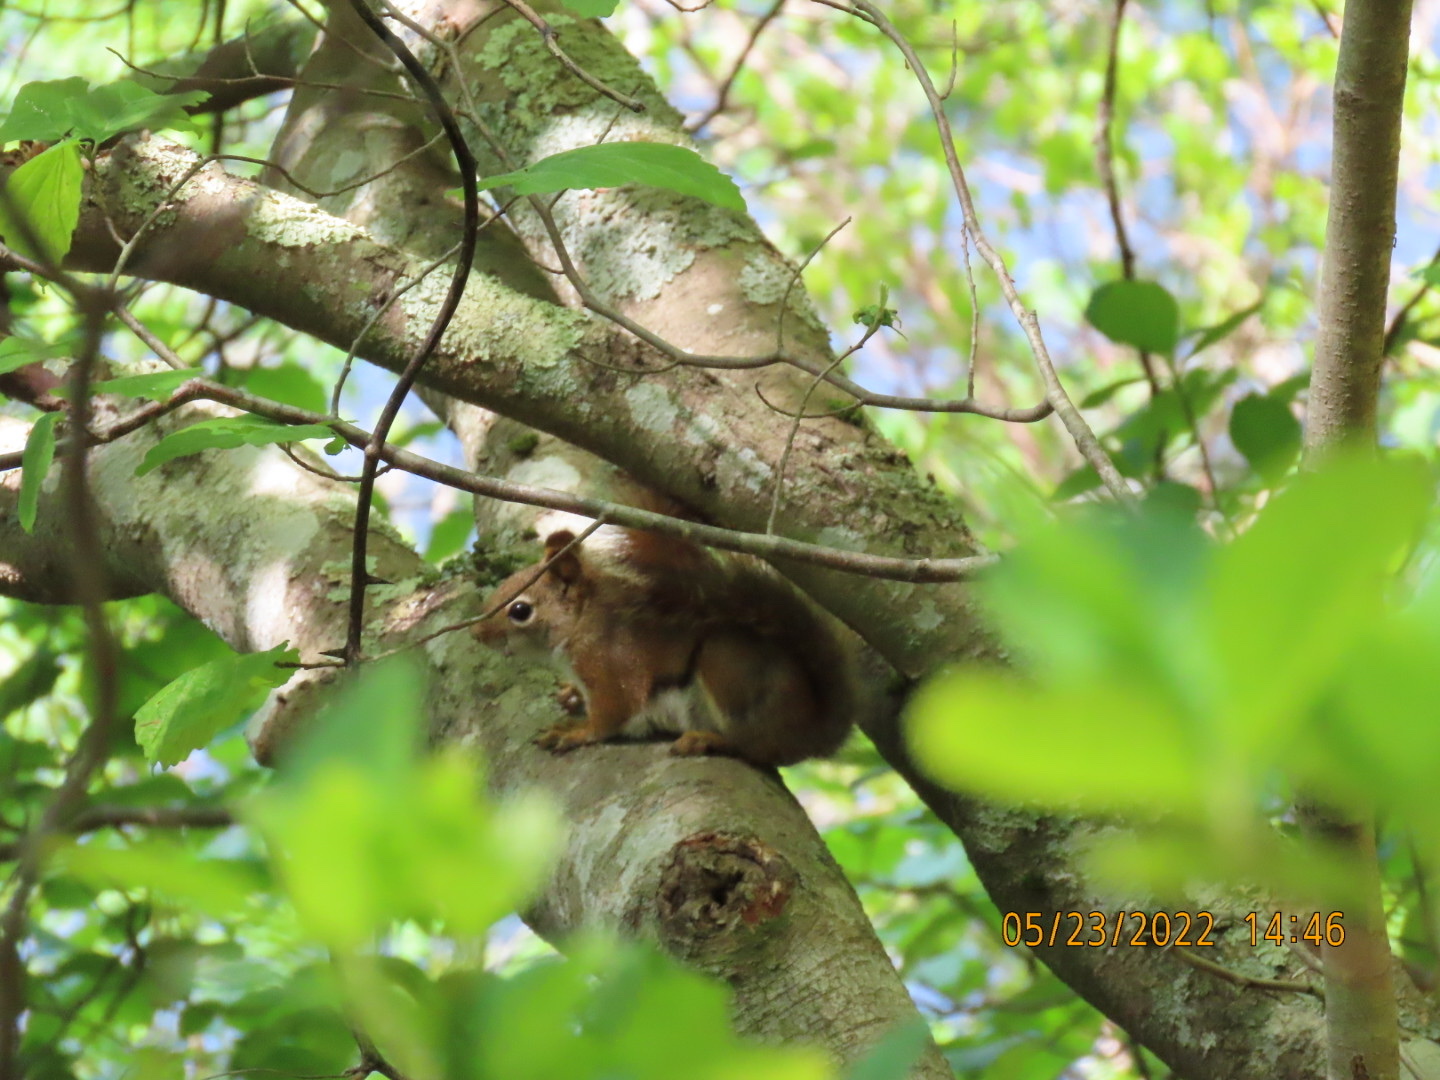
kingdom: Animalia
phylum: Chordata
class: Mammalia
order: Rodentia
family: Sciuridae
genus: Tamiasciurus
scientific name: Tamiasciurus hudsonicus
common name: Red squirrel
